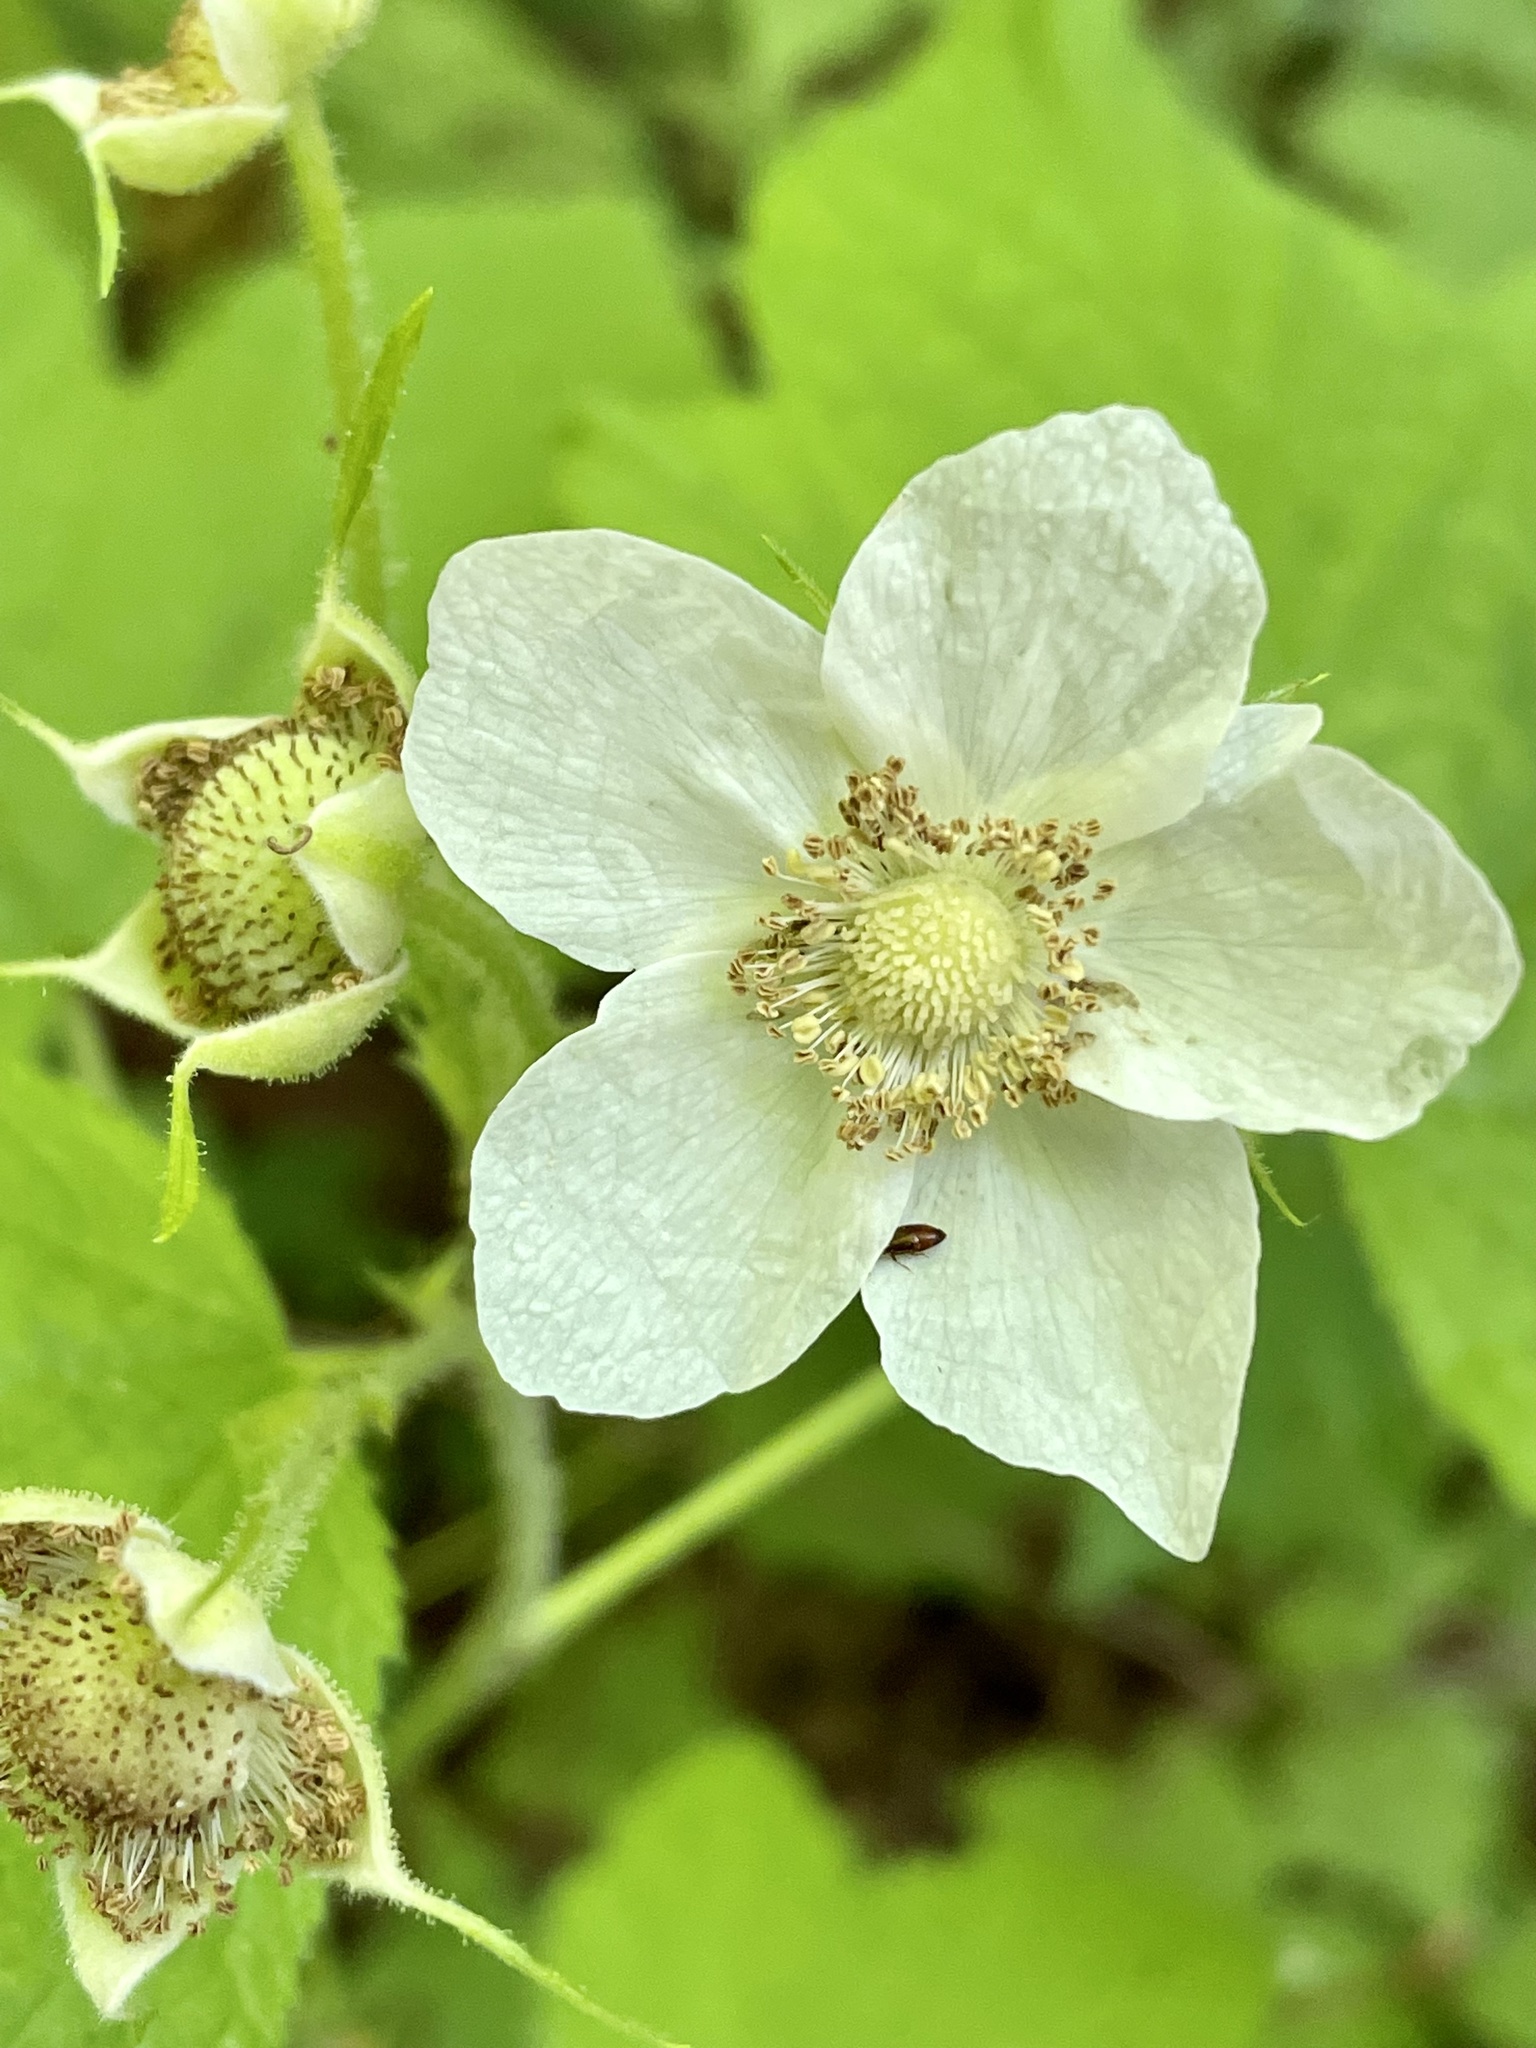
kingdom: Plantae
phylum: Tracheophyta
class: Magnoliopsida
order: Rosales
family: Rosaceae
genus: Rubus
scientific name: Rubus parviflorus
